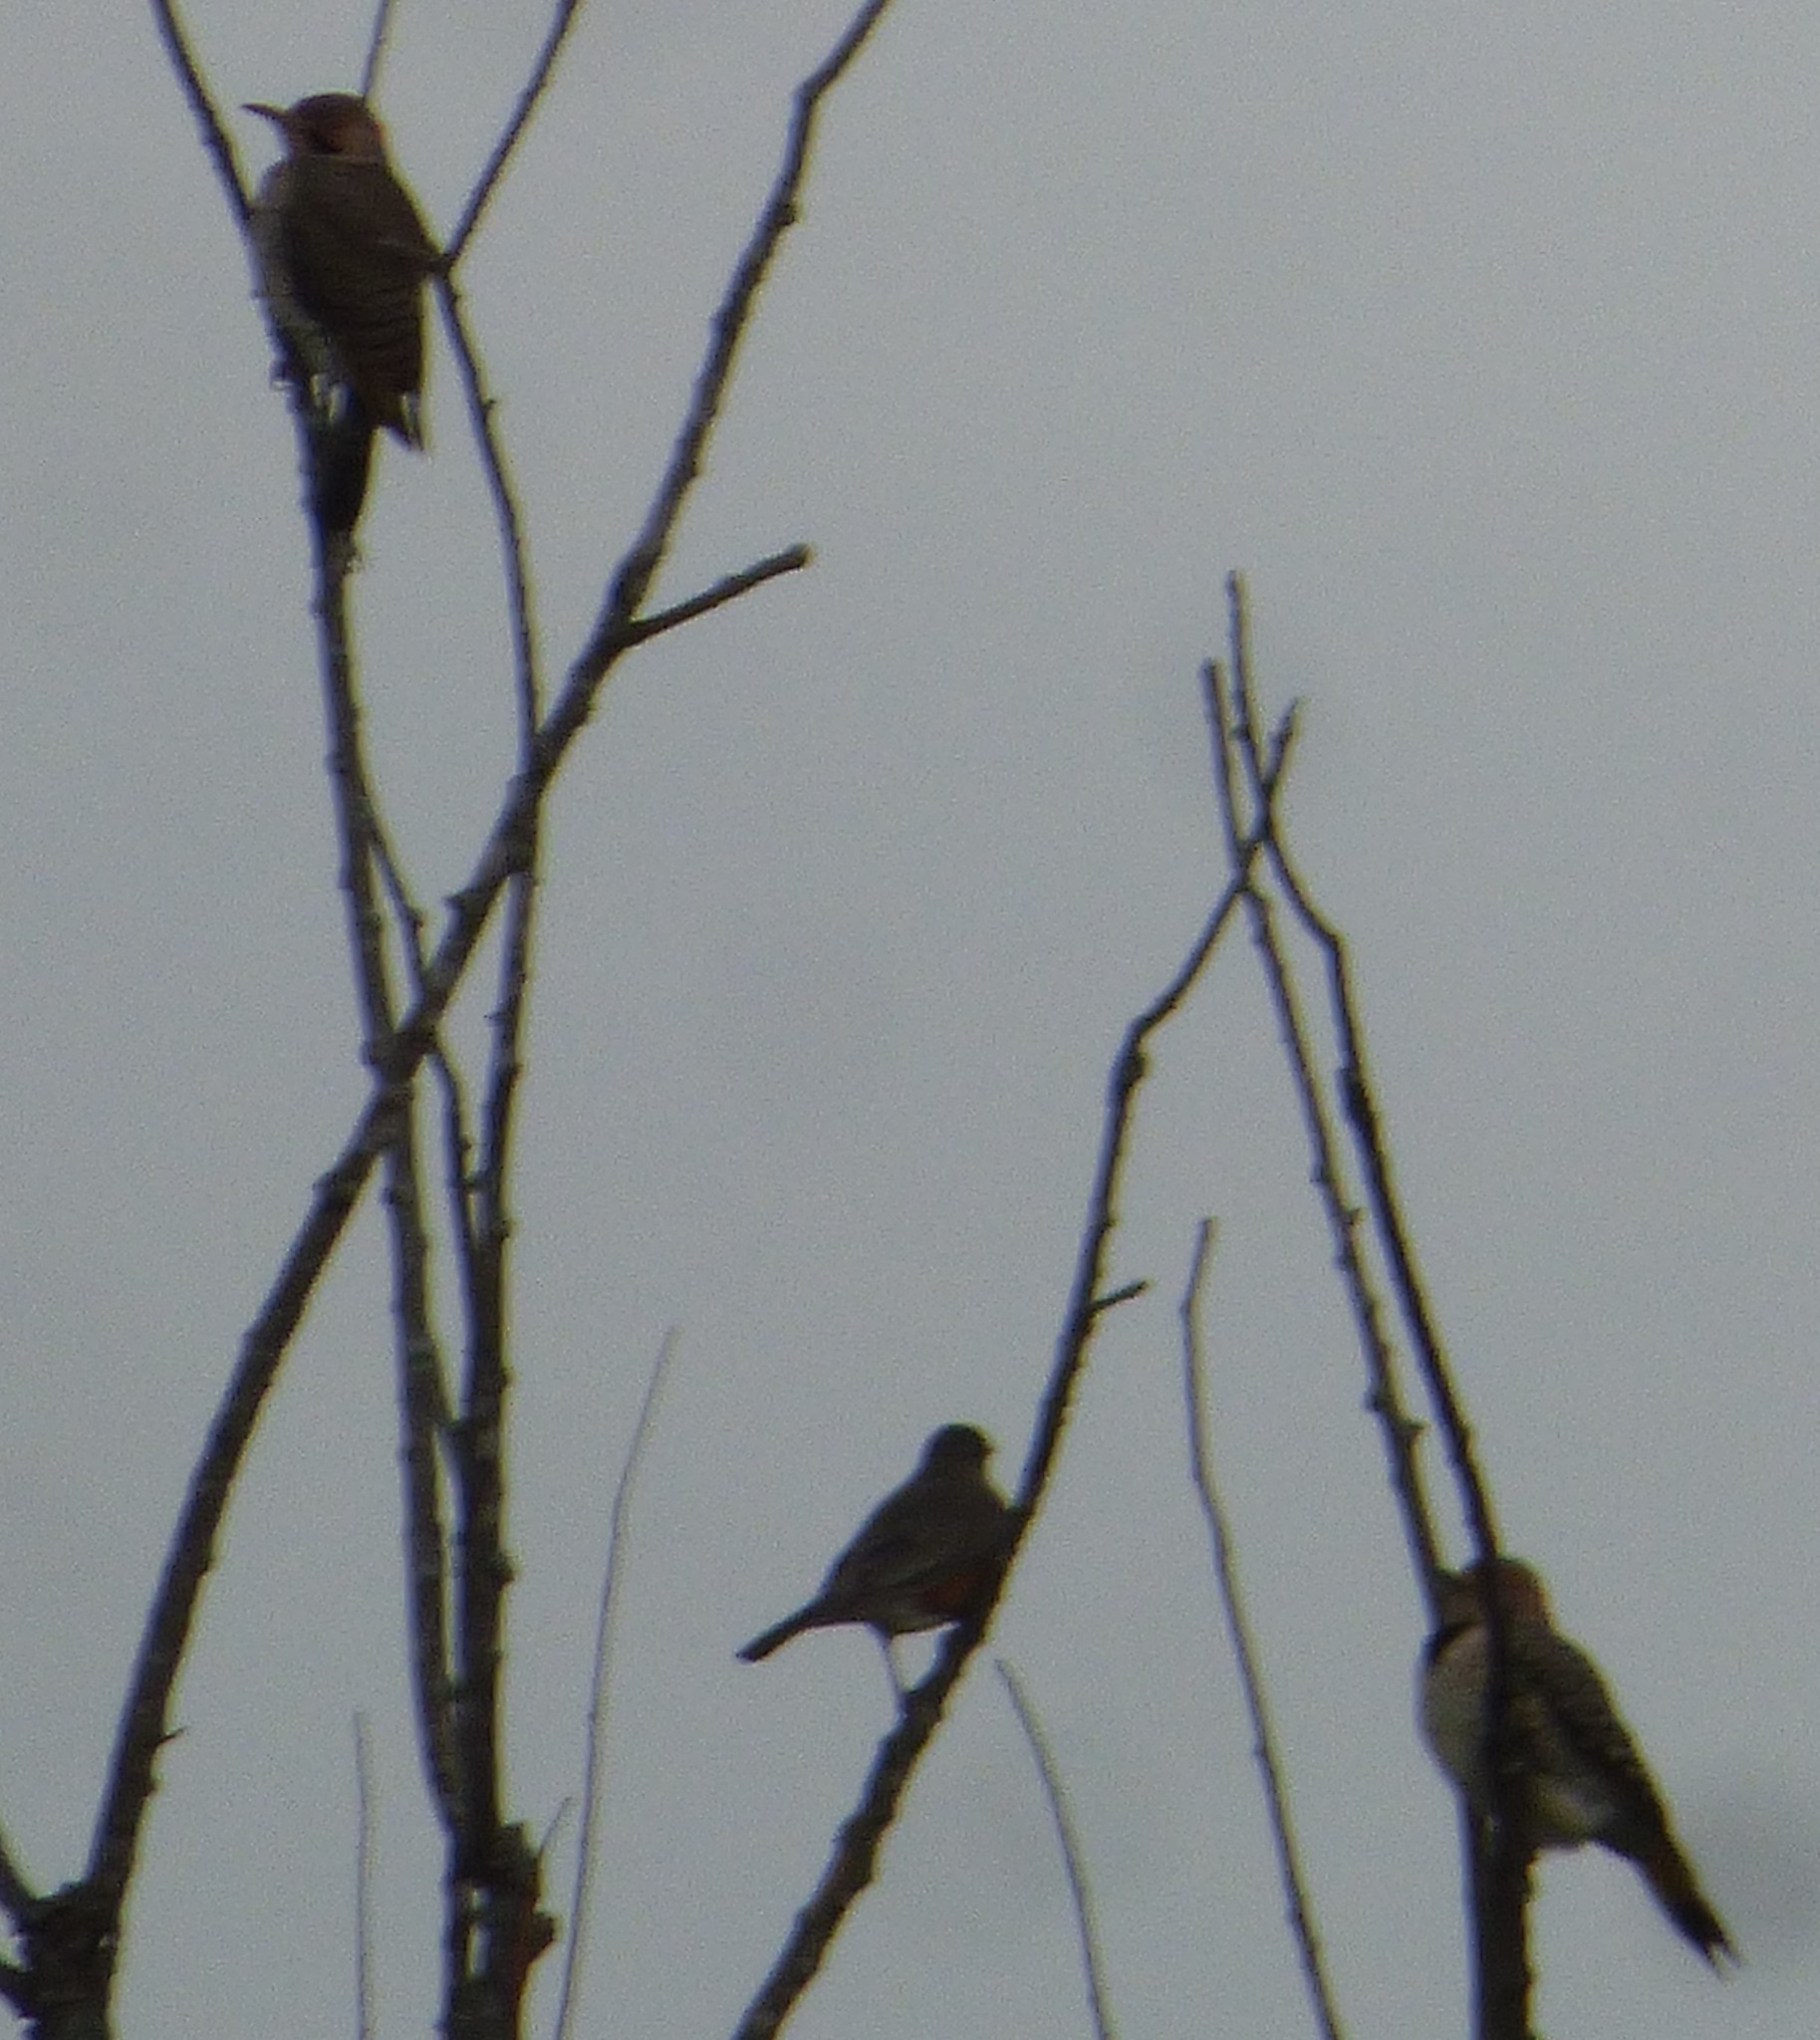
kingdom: Animalia
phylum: Chordata
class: Aves
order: Piciformes
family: Picidae
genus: Colaptes
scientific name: Colaptes auratus
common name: Northern flicker
